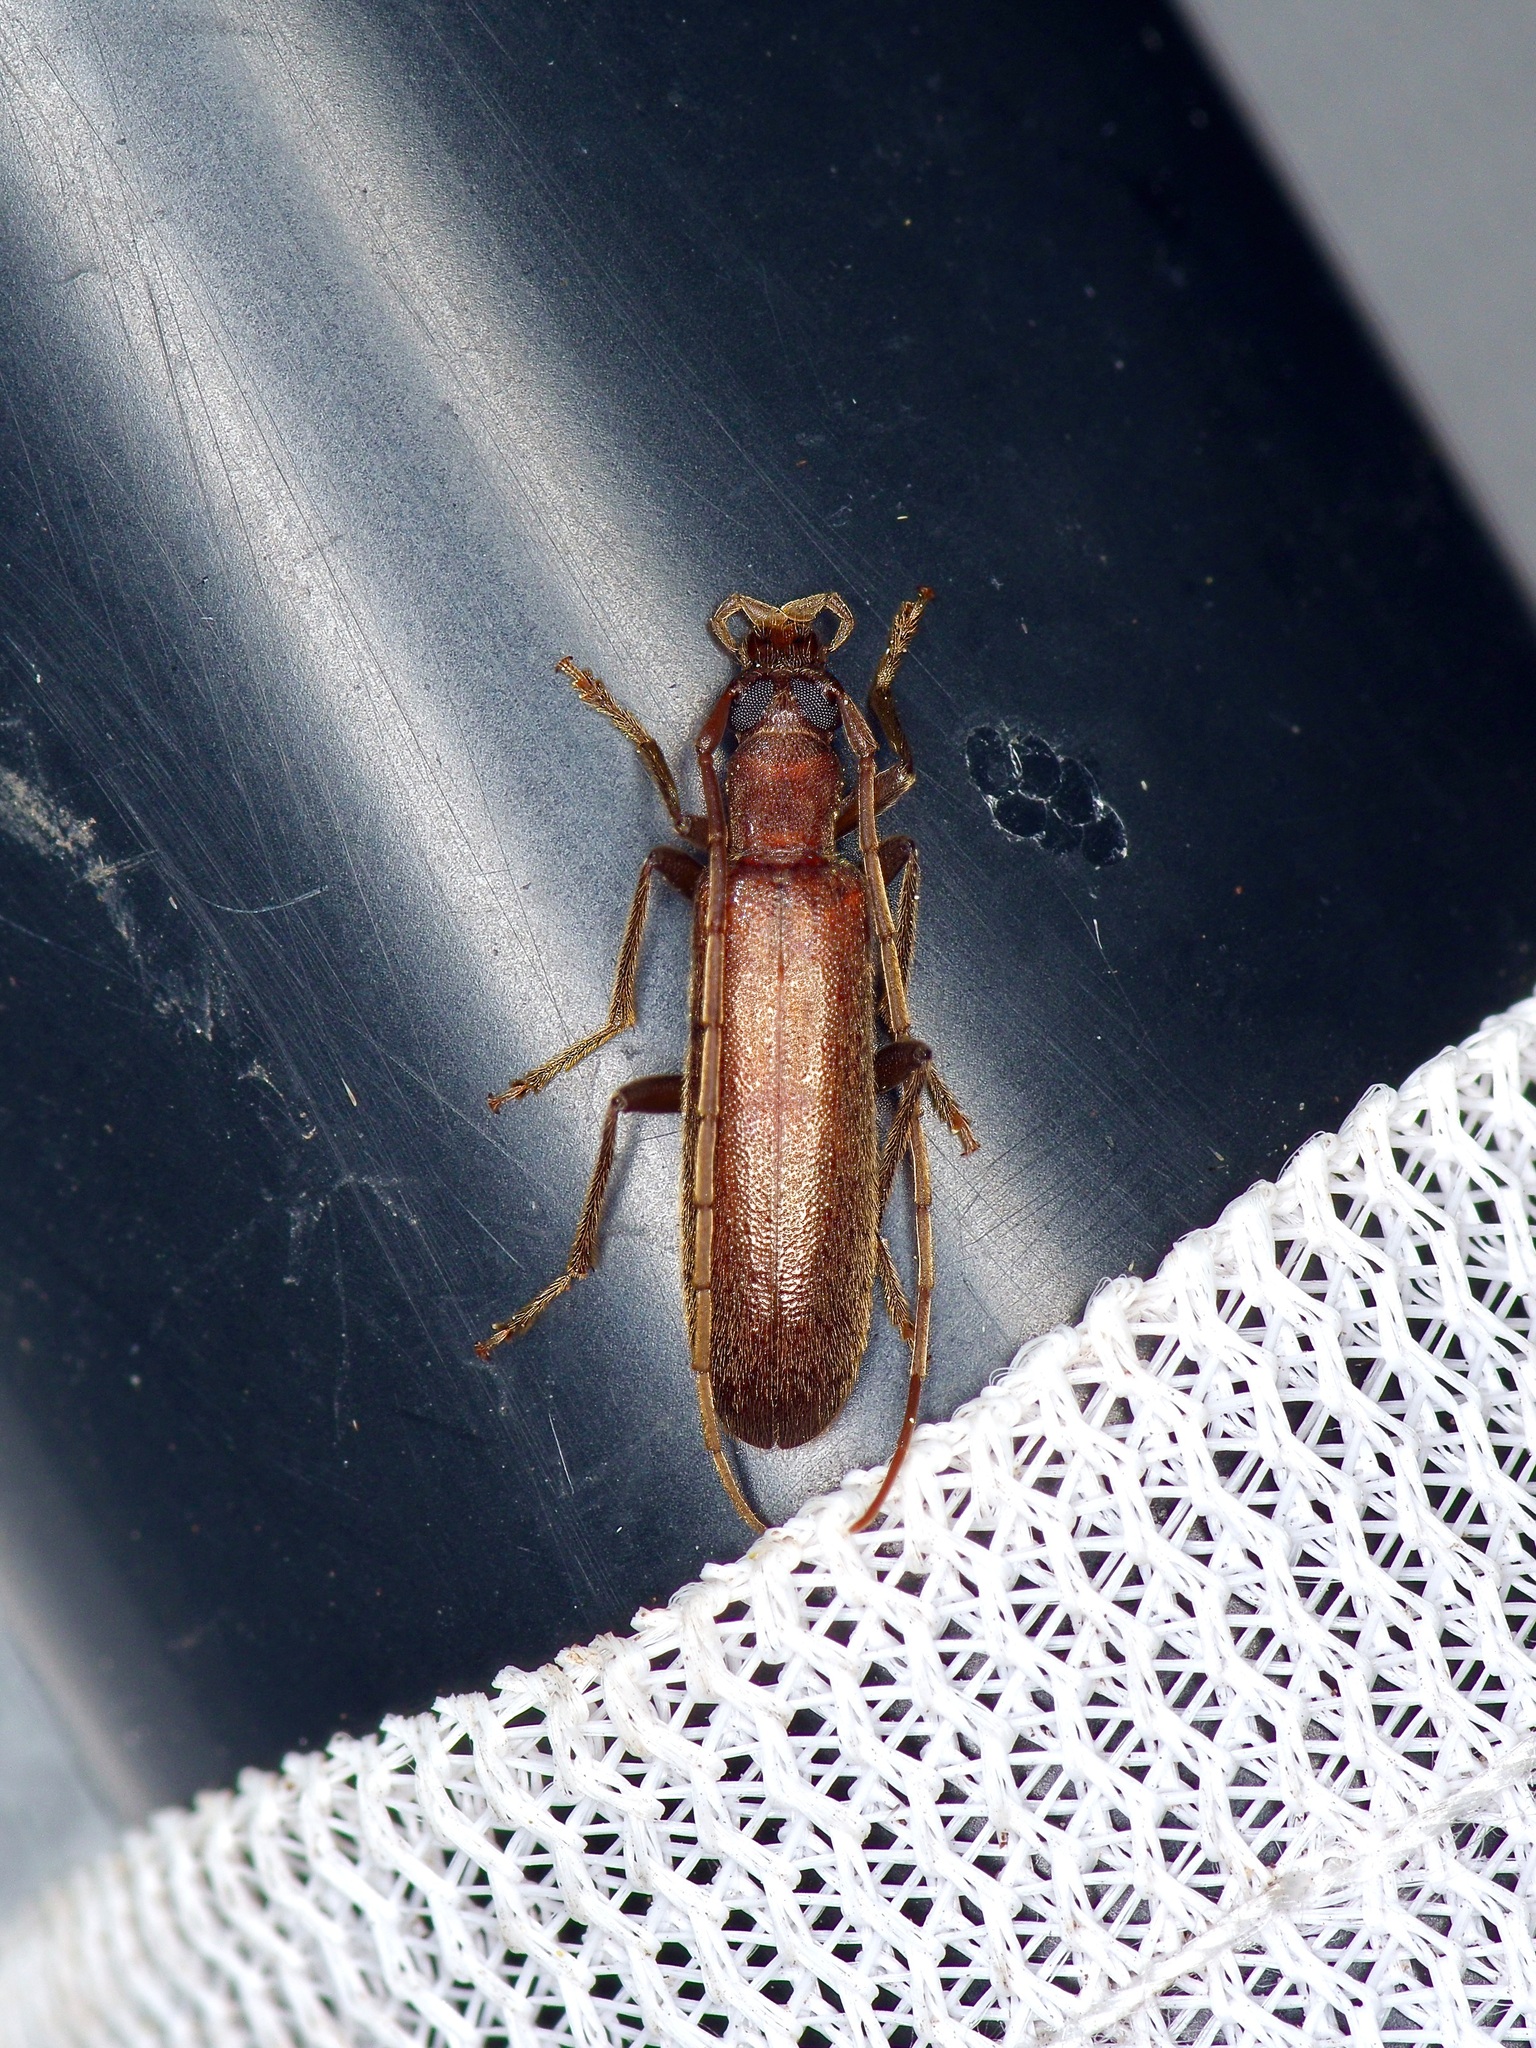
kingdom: Animalia
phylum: Arthropoda
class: Insecta
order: Coleoptera
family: Oedemeridae
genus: Sparedrus
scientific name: Sparedrus aspersus
